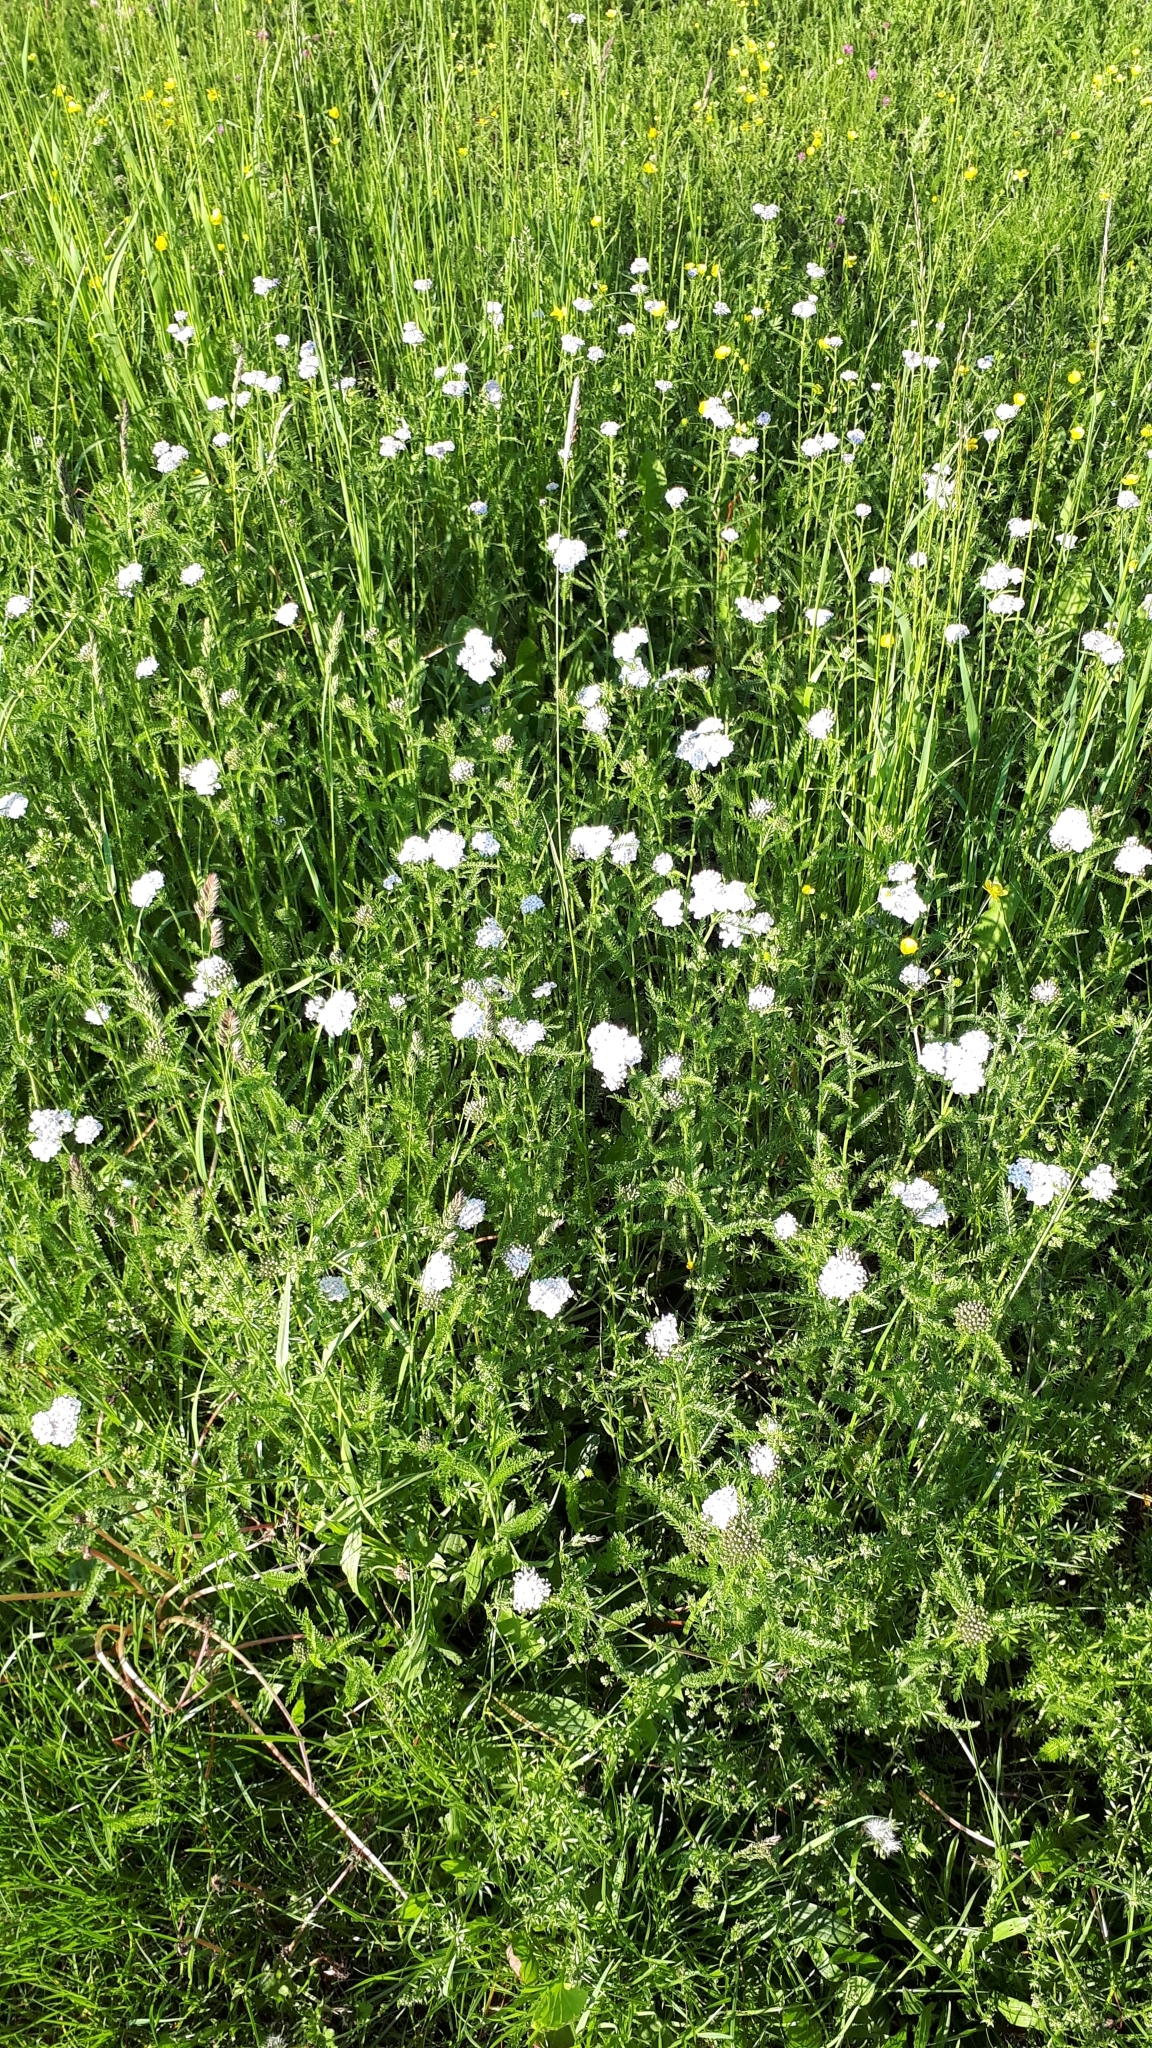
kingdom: Plantae
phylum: Tracheophyta
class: Magnoliopsida
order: Asterales
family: Asteraceae
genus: Achillea
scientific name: Achillea millefolium
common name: Yarrow
